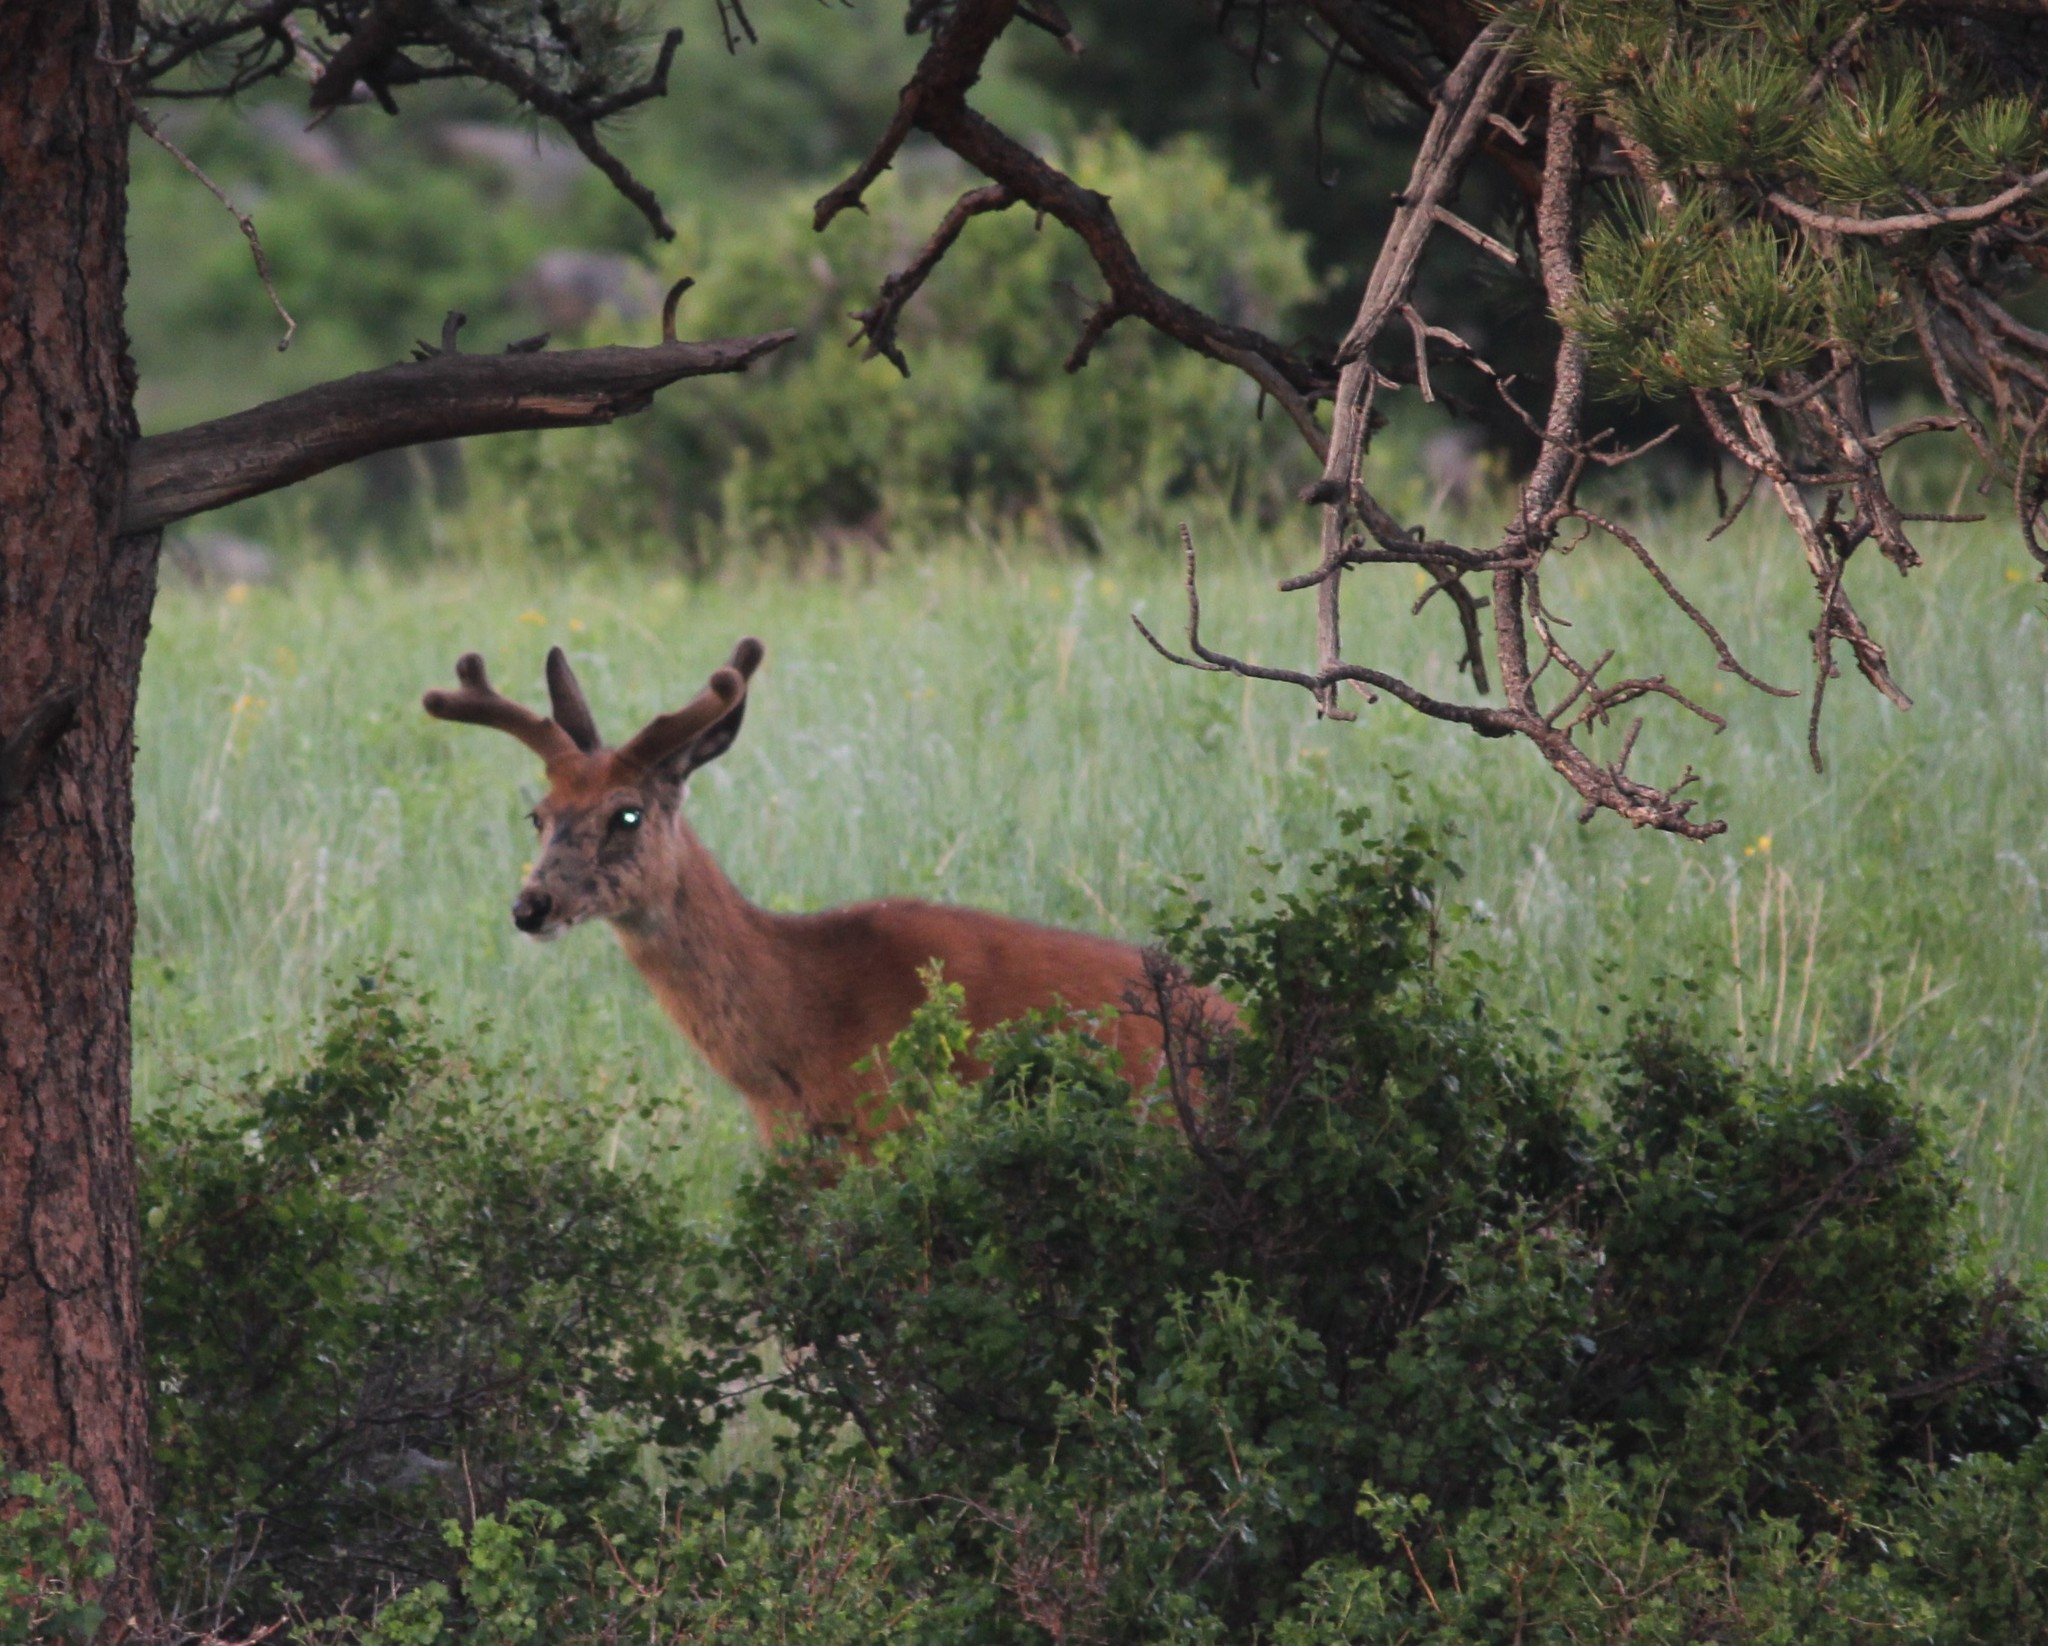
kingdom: Animalia
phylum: Chordata
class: Mammalia
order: Artiodactyla
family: Cervidae
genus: Odocoileus
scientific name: Odocoileus hemionus
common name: Mule deer
